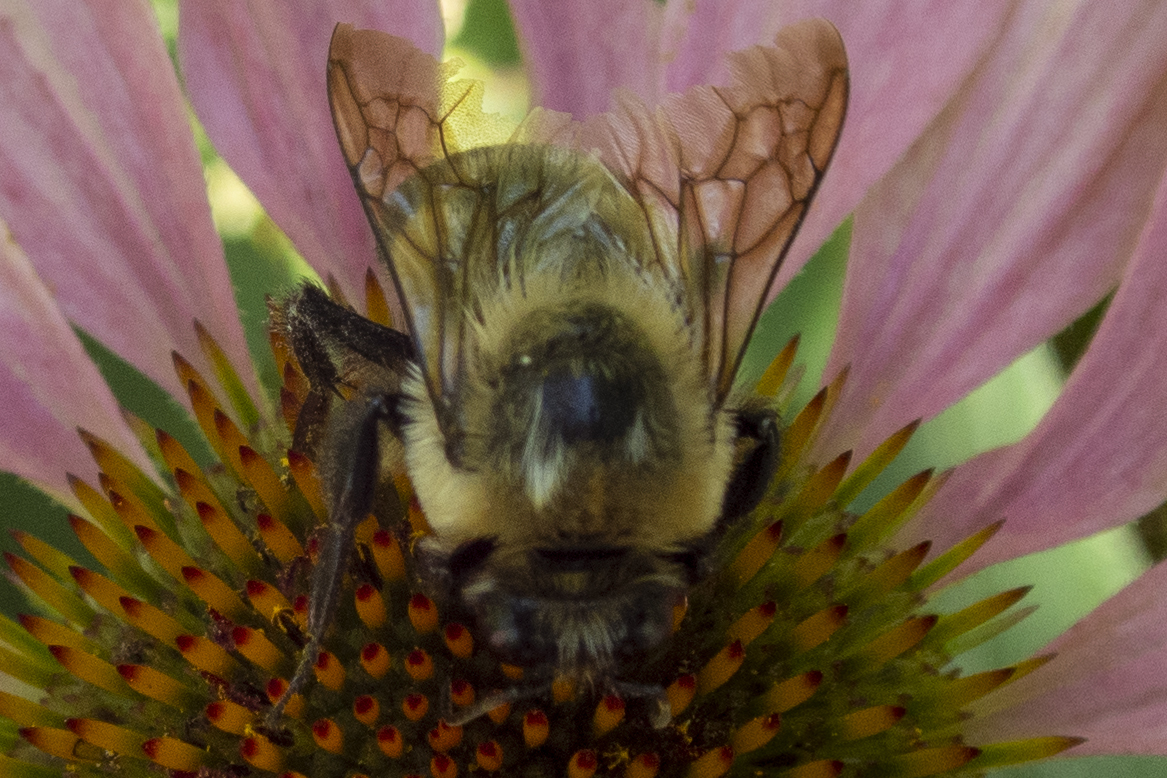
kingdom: Animalia
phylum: Arthropoda
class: Insecta
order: Hymenoptera
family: Apidae
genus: Bombus
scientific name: Bombus griseocollis
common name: Brown-belted bumble bee
